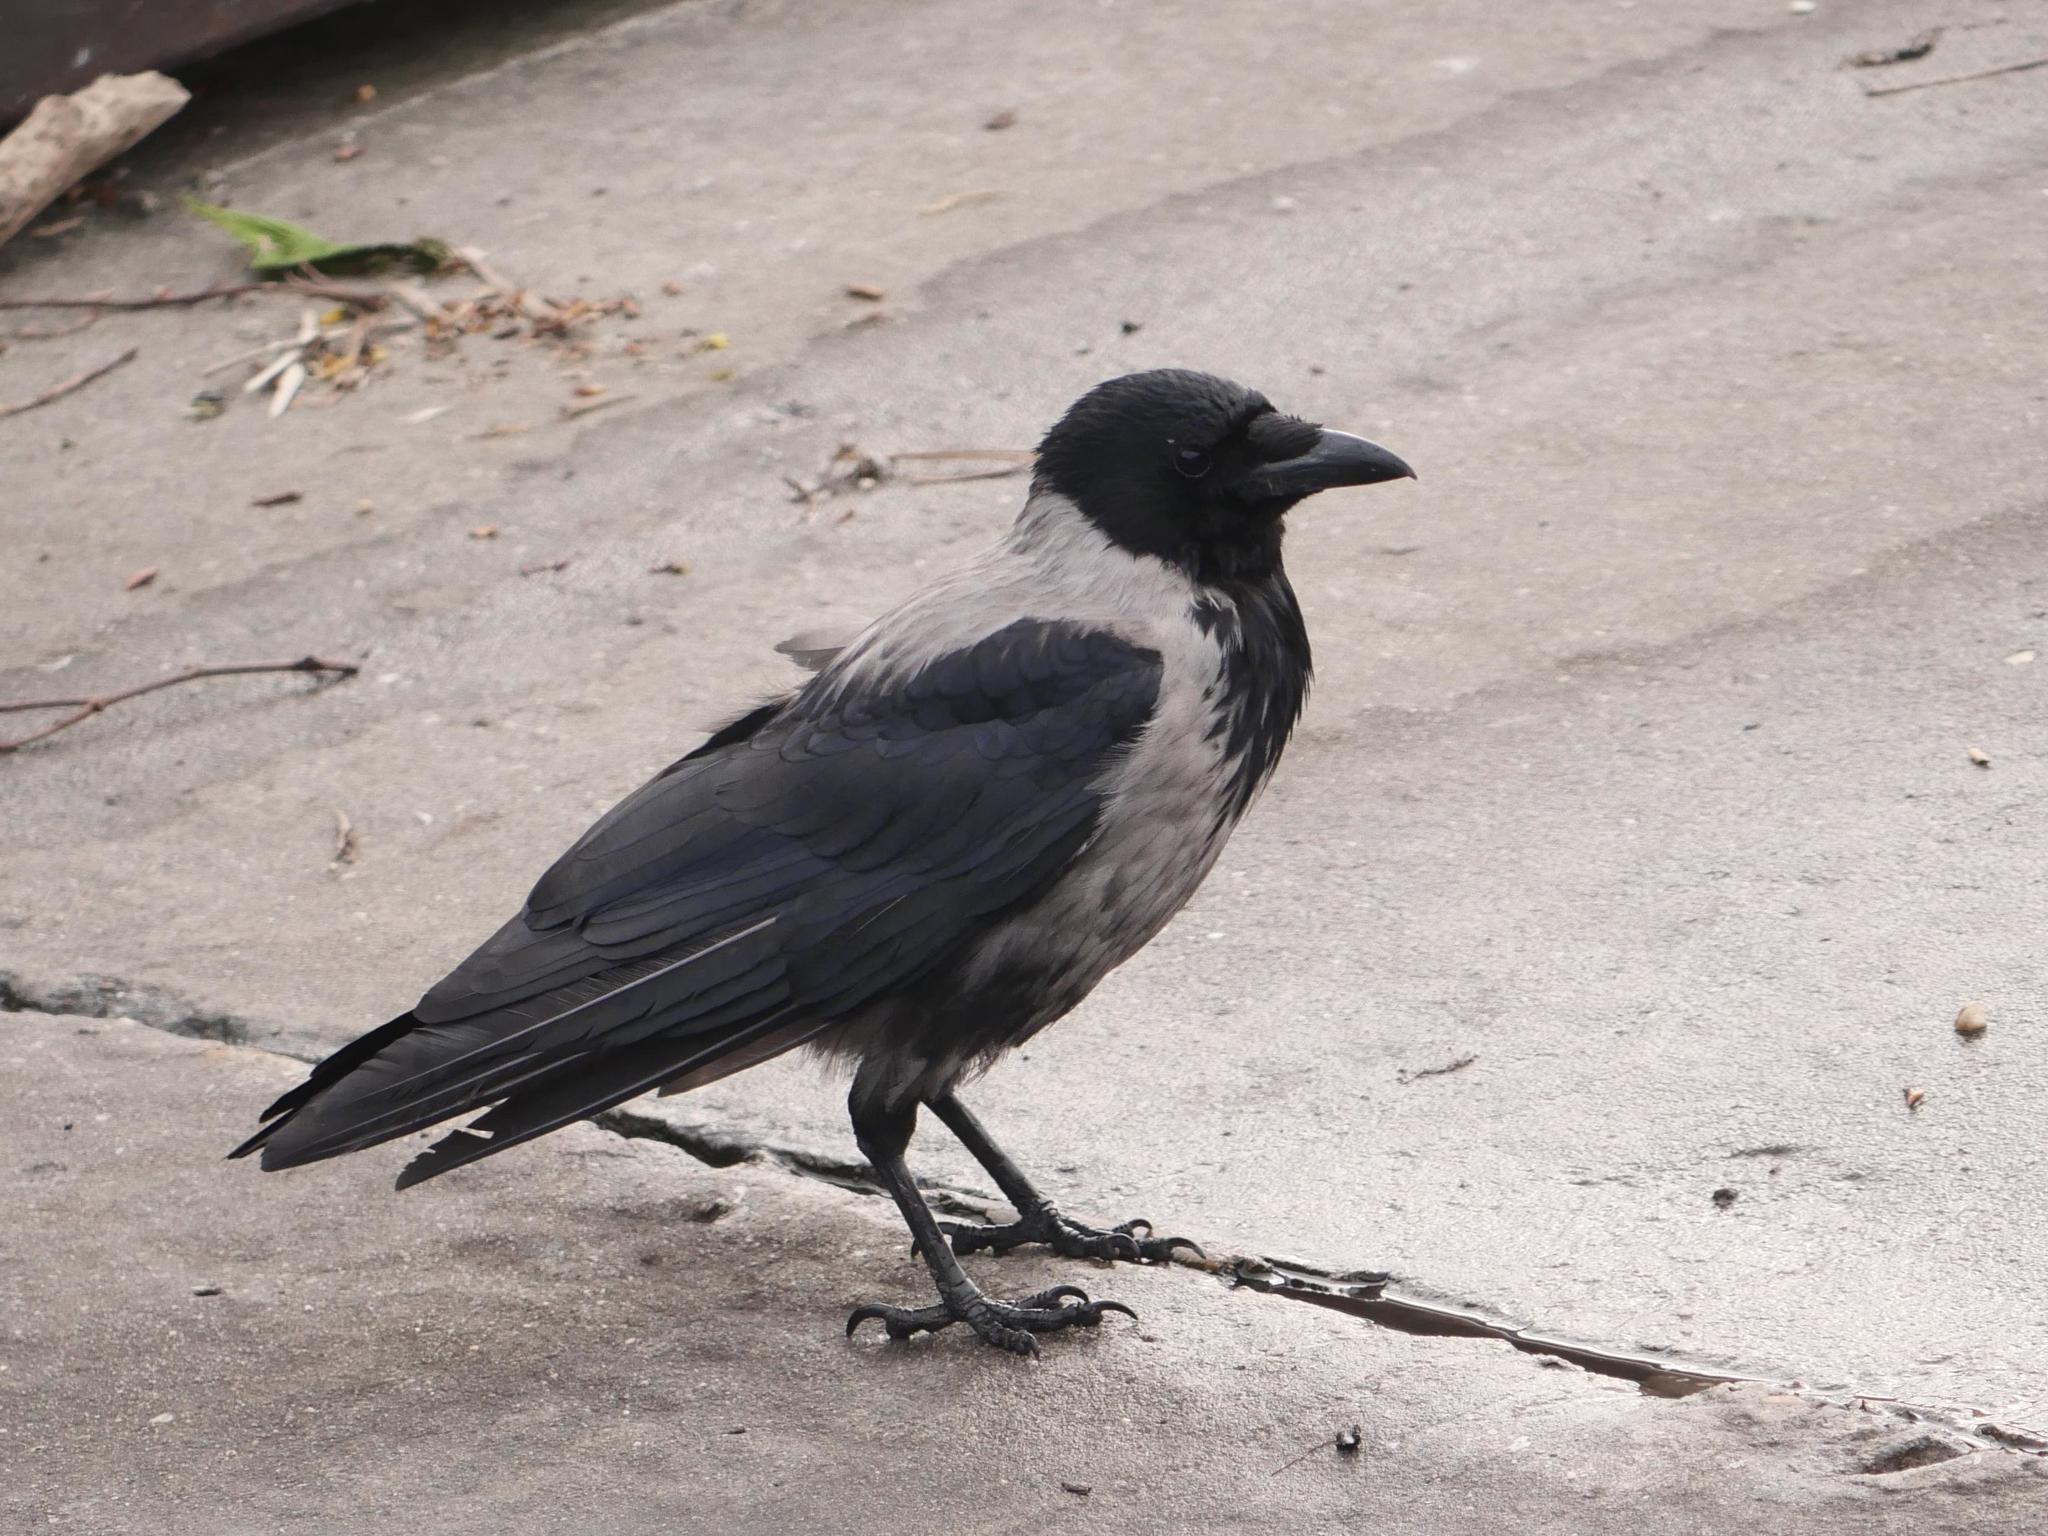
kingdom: Animalia
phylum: Chordata
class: Aves
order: Passeriformes
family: Corvidae
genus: Corvus
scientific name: Corvus
